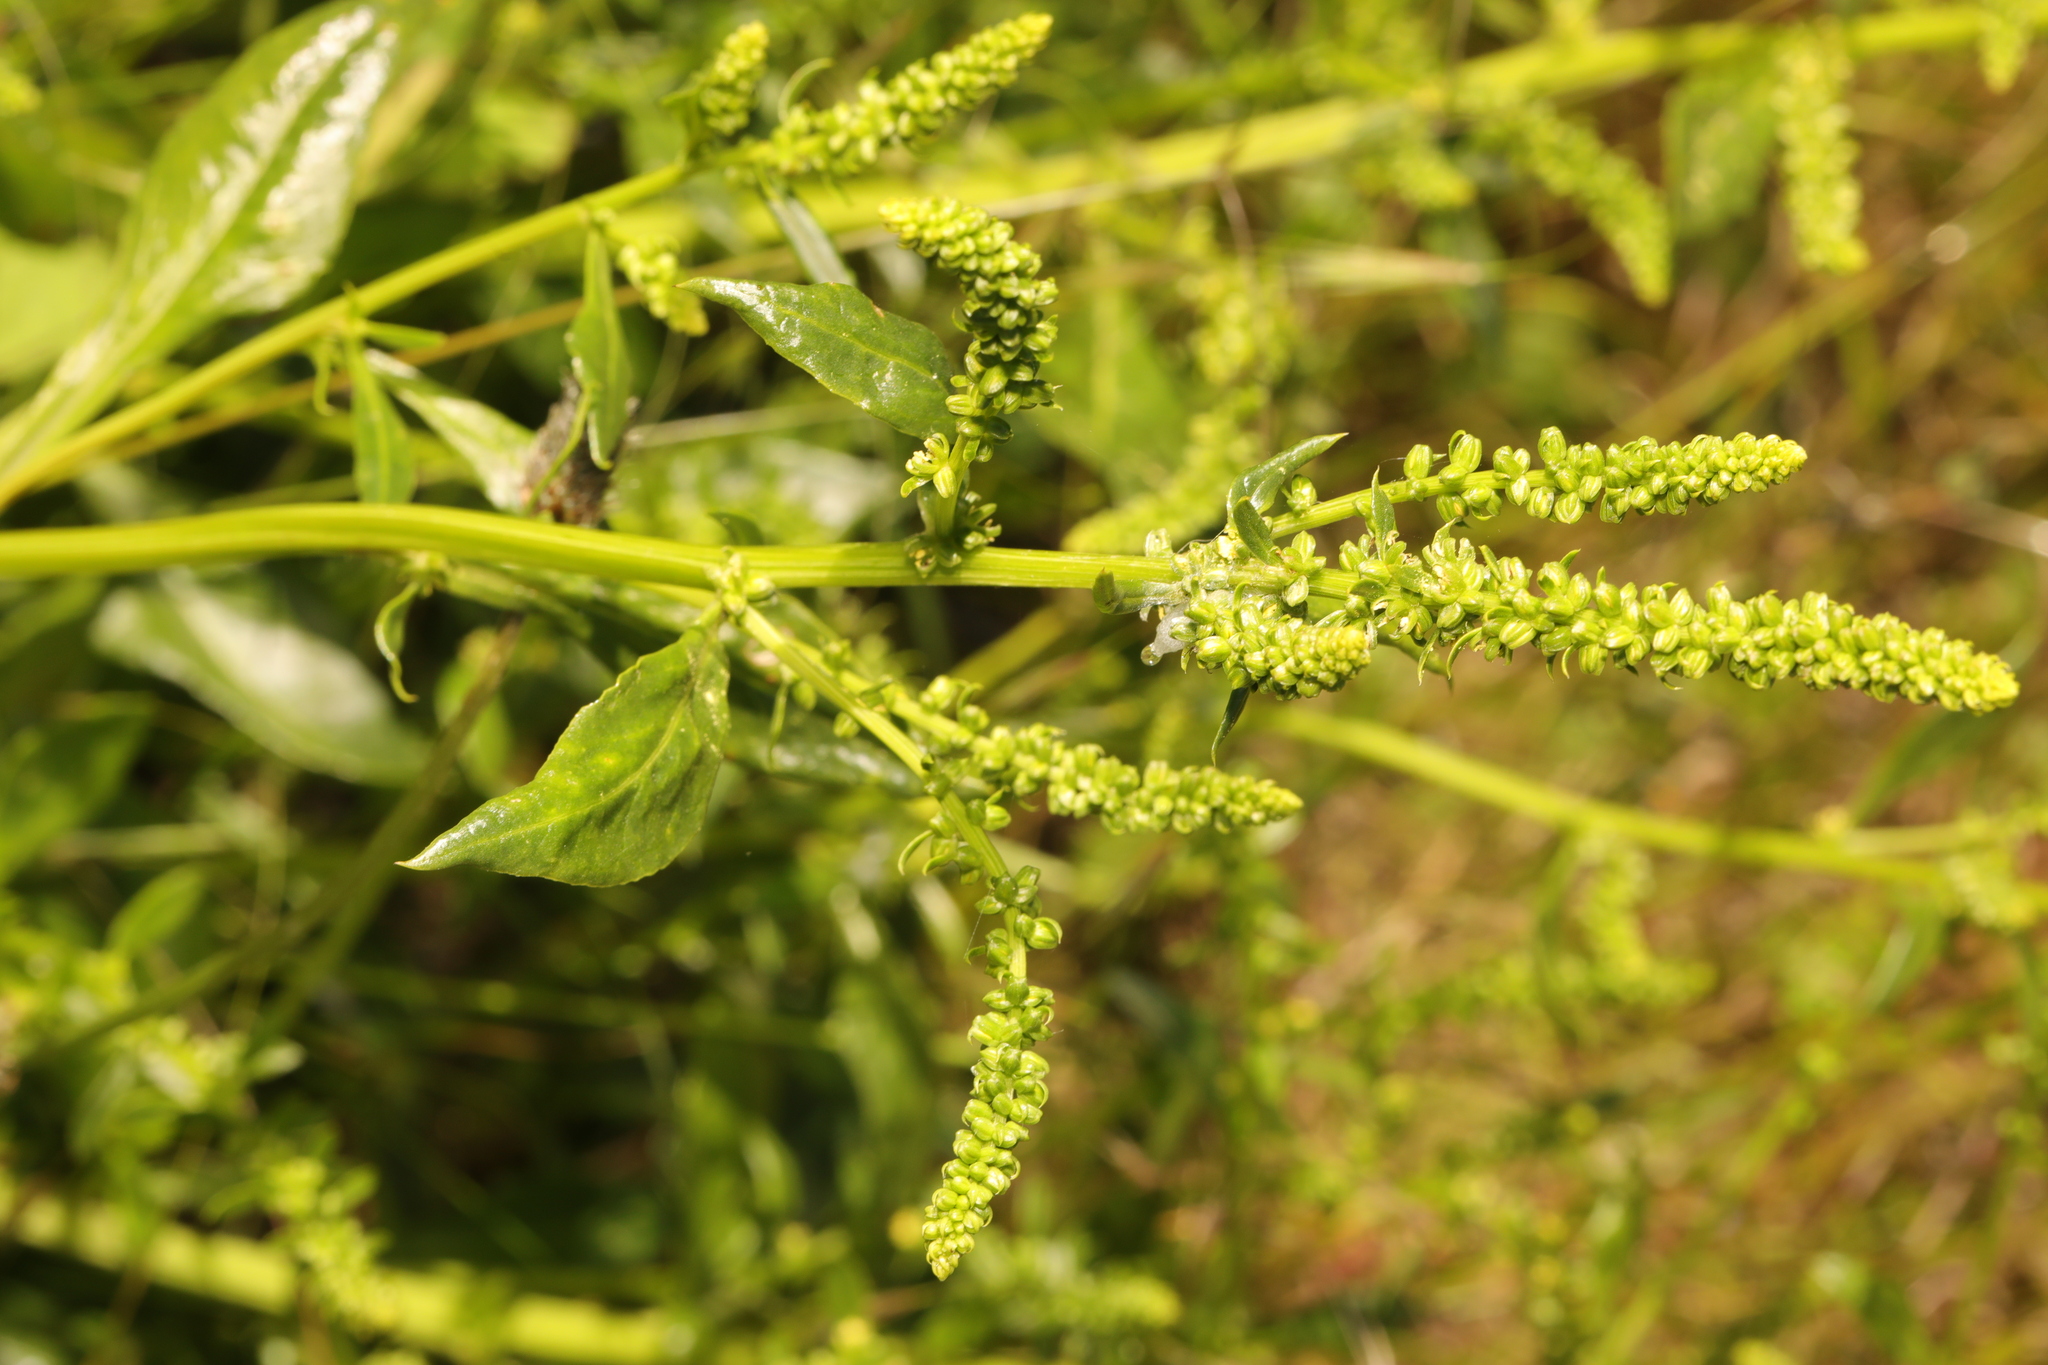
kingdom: Plantae
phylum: Tracheophyta
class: Magnoliopsida
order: Caryophyllales
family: Amaranthaceae
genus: Beta
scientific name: Beta vulgaris
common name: Beet
